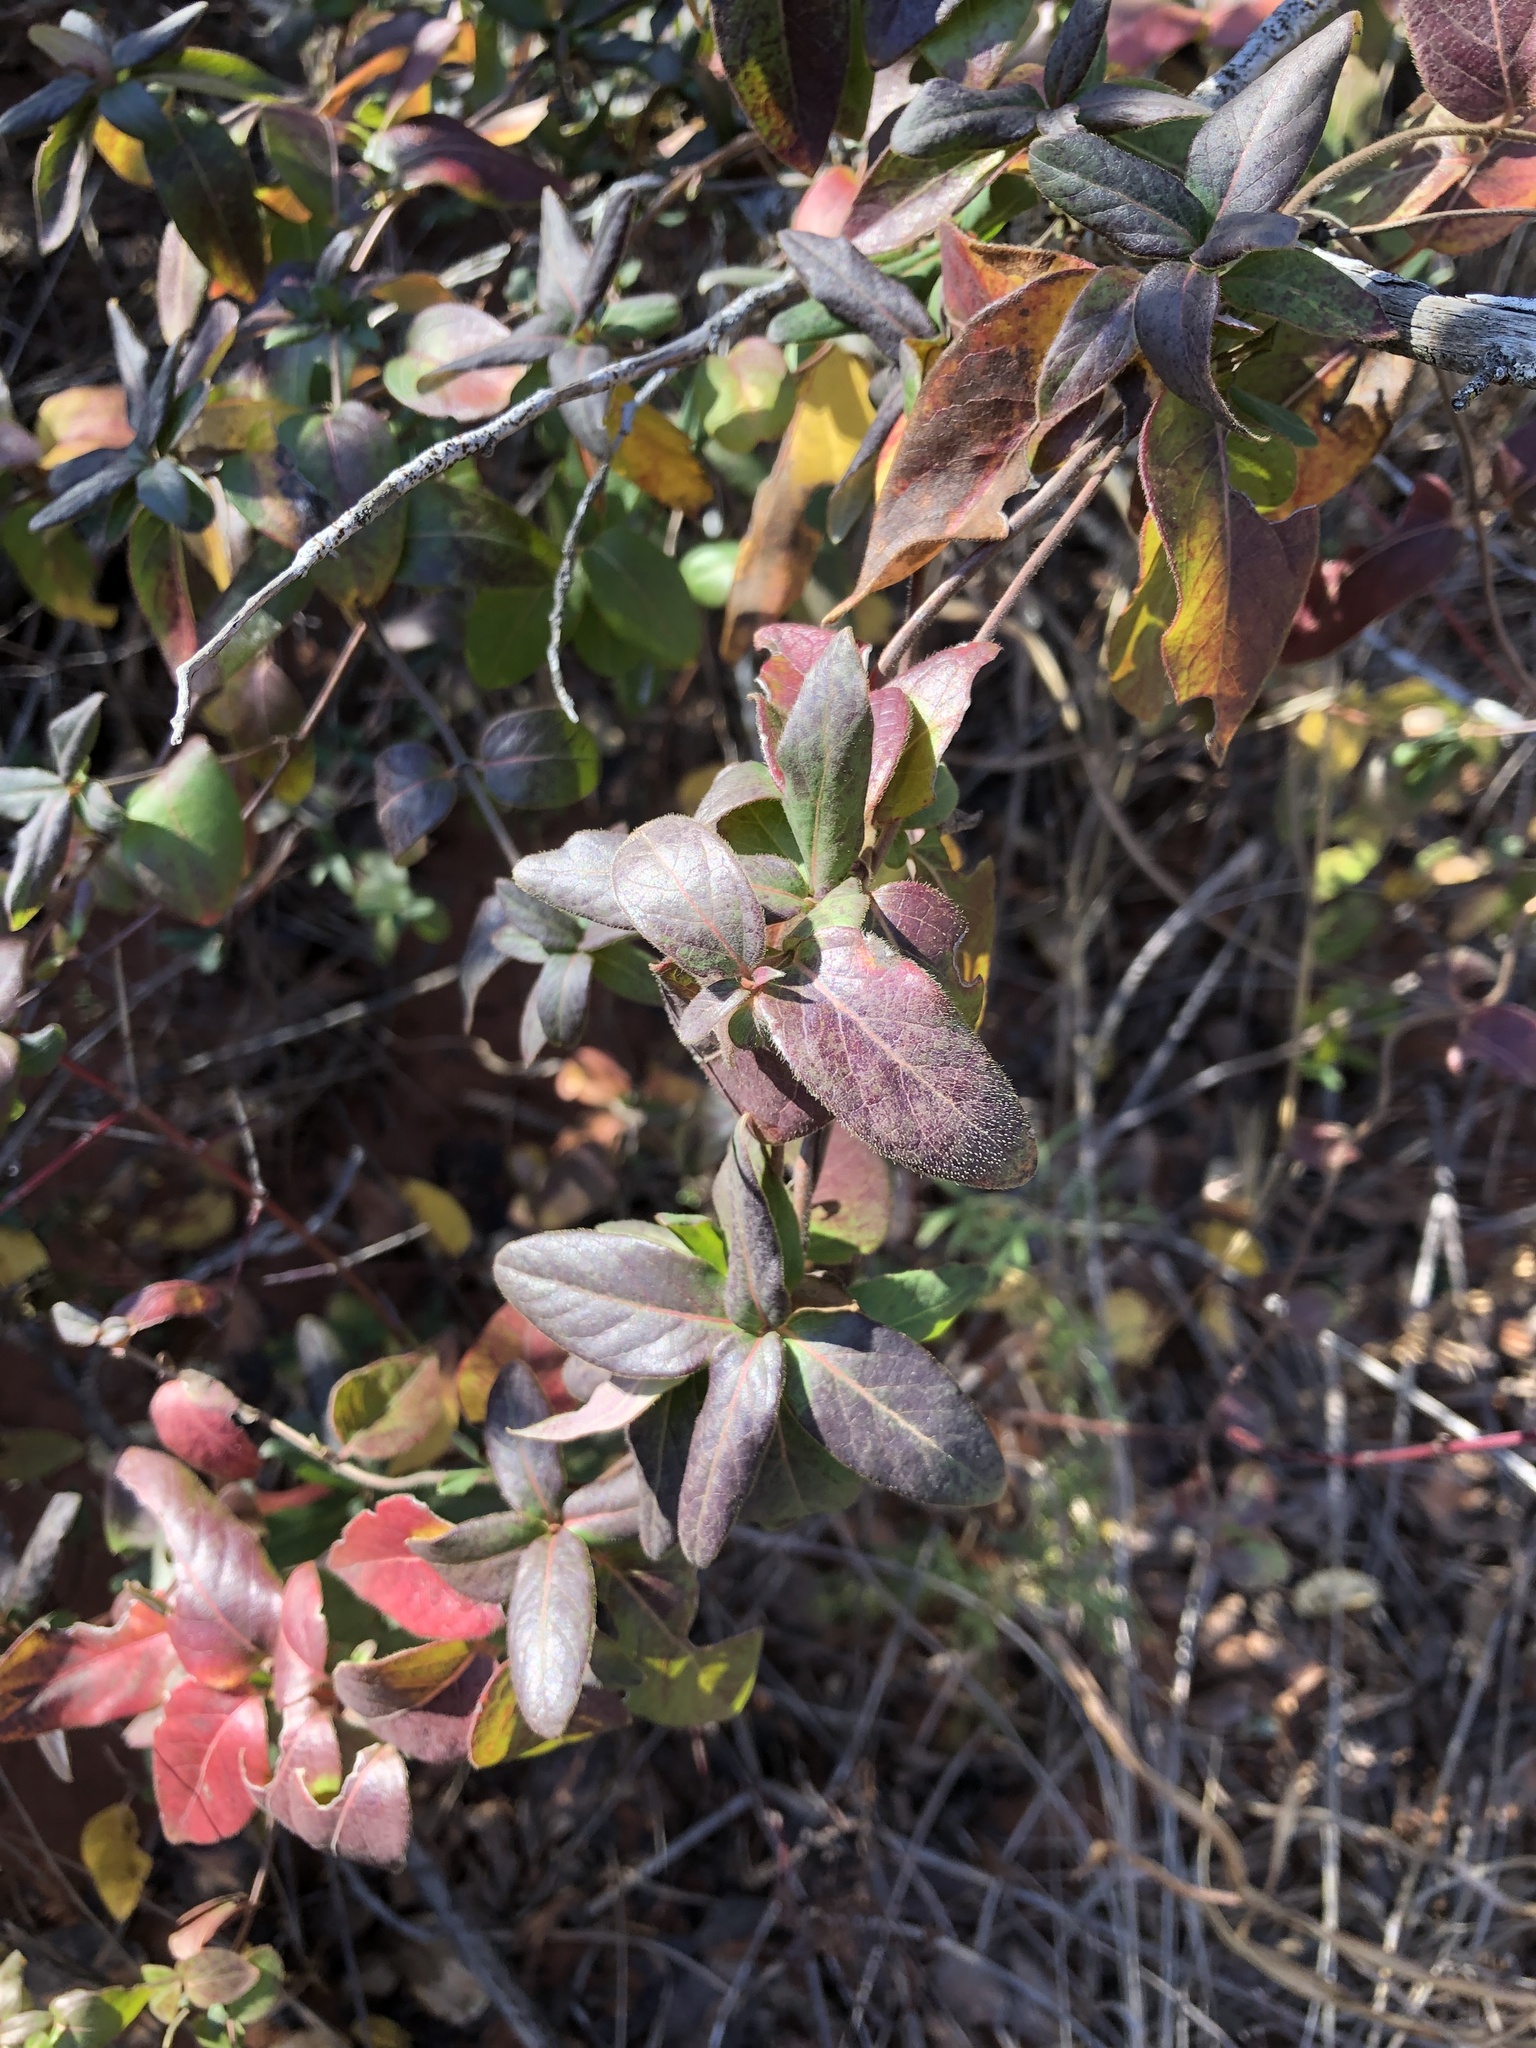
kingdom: Plantae
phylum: Tracheophyta
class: Magnoliopsida
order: Dipsacales
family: Caprifoliaceae
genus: Lonicera
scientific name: Lonicera japonica
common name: Japanese honeysuckle
